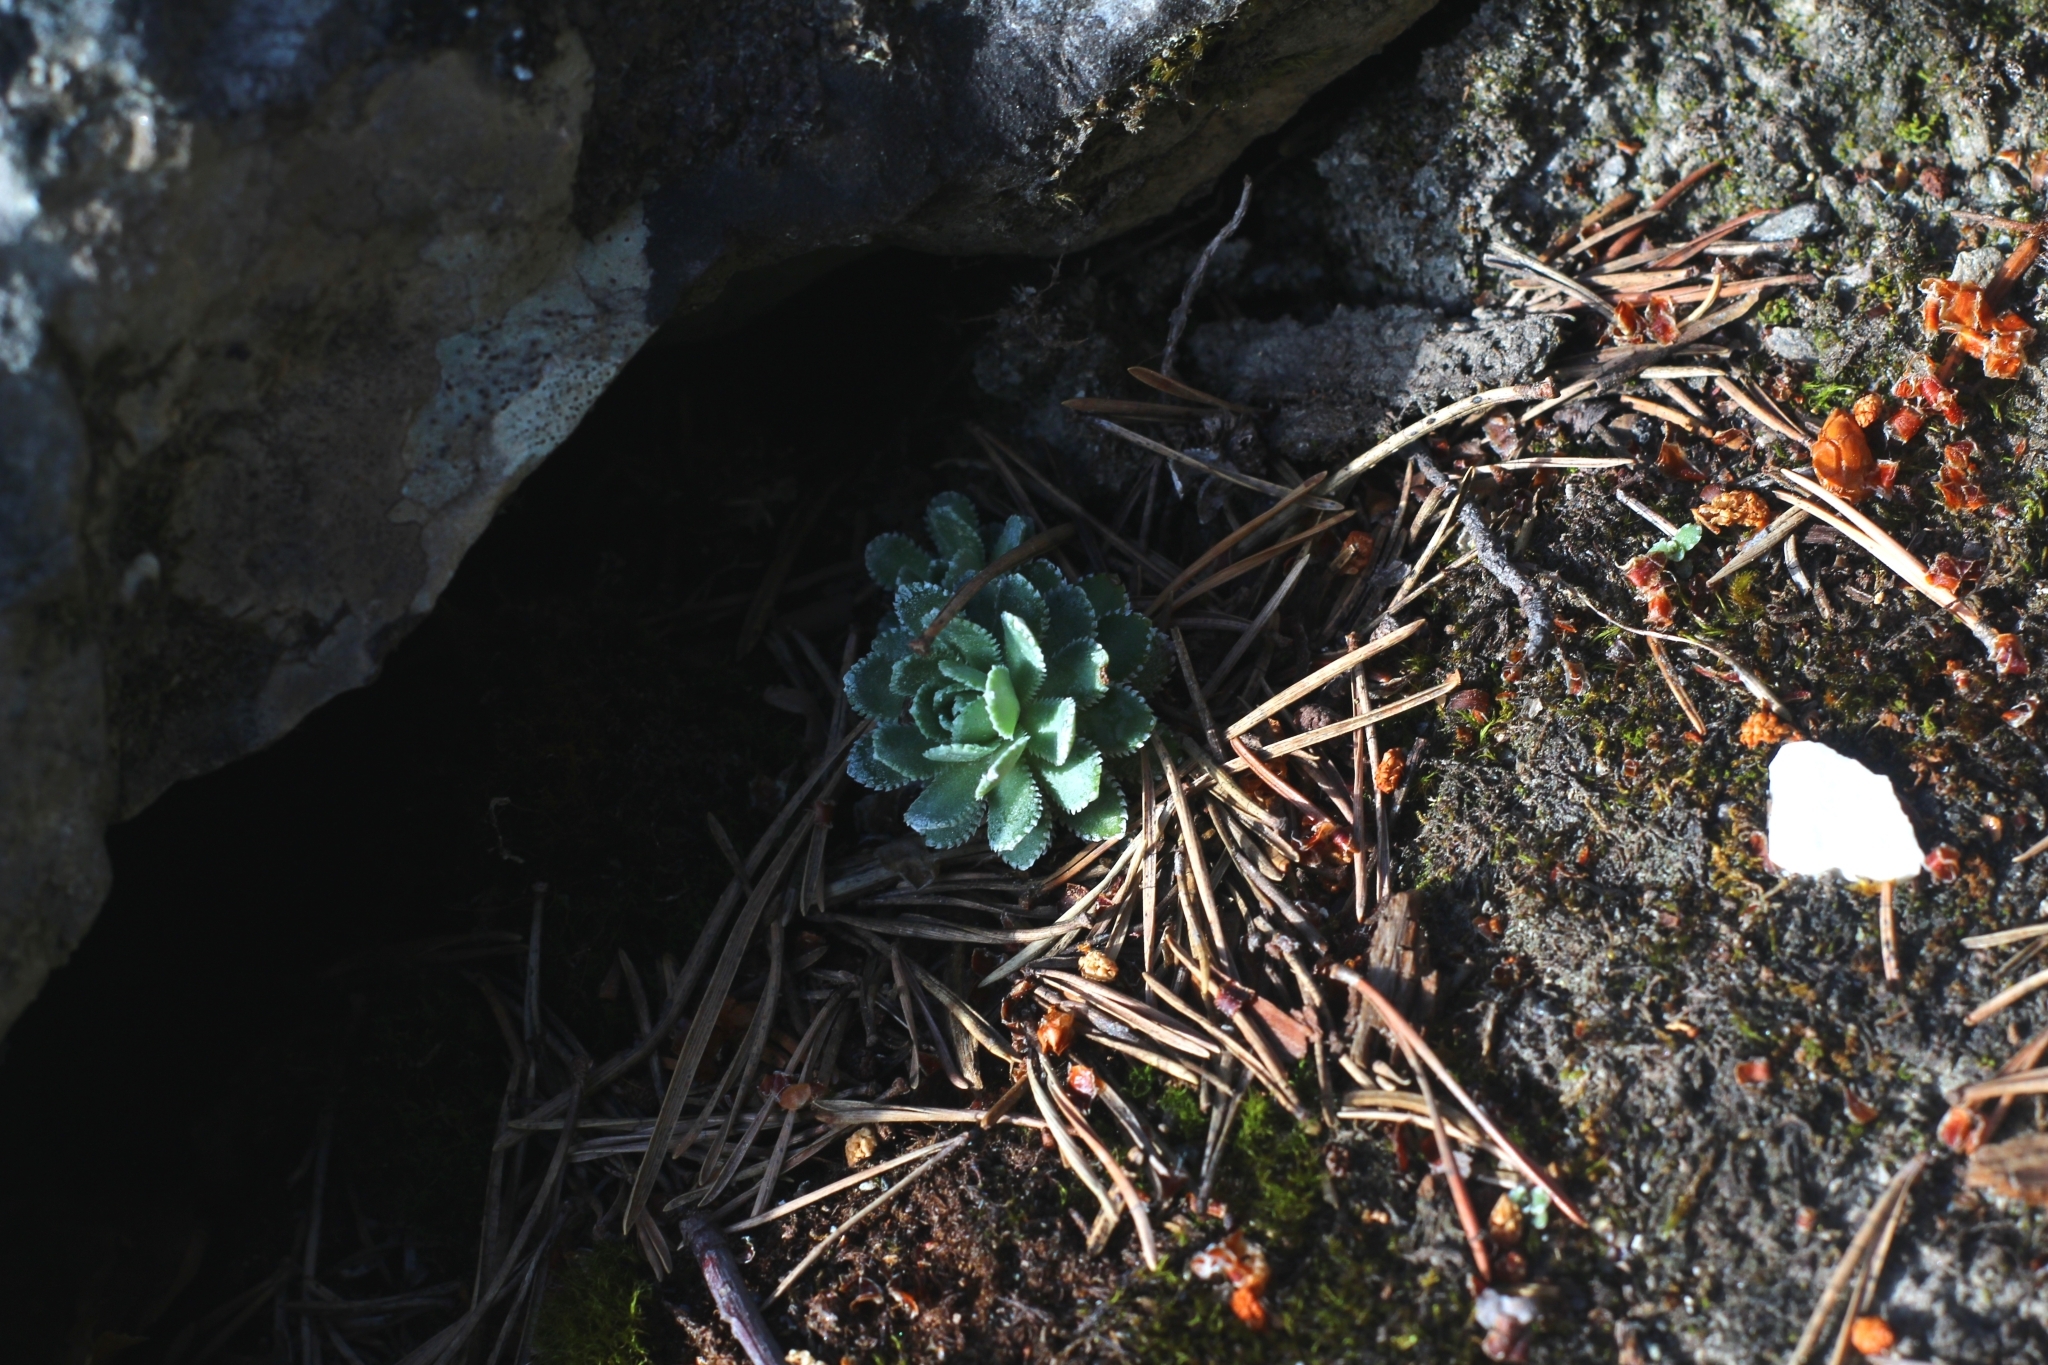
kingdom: Plantae
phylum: Tracheophyta
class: Magnoliopsida
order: Saxifragales
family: Saxifragaceae
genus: Saxifraga
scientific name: Saxifraga paniculata
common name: Livelong saxifrage
